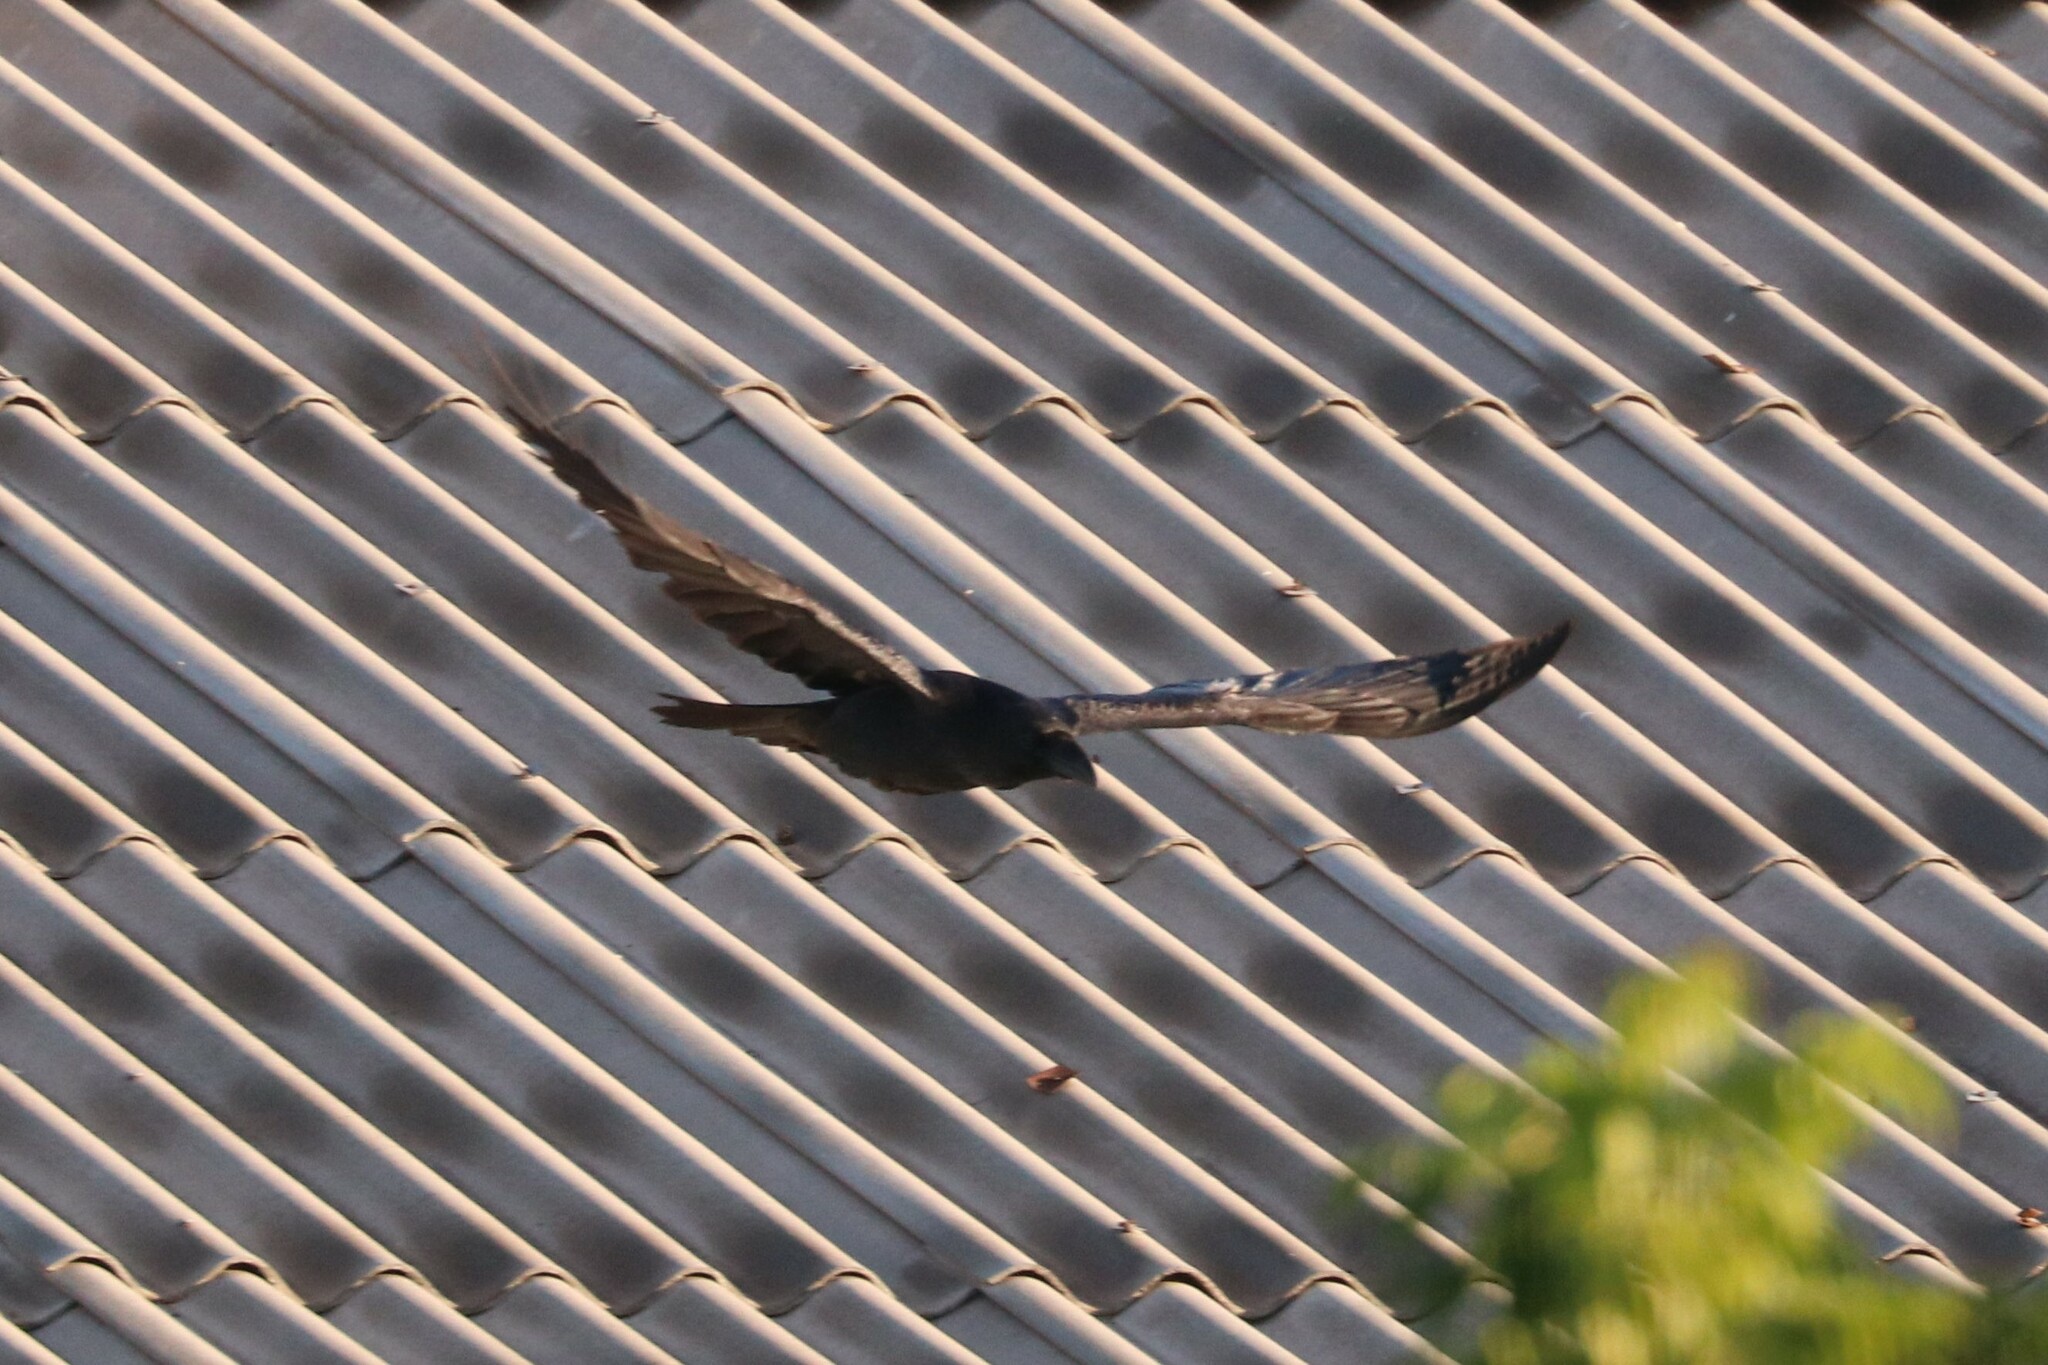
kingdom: Animalia
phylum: Chordata
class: Aves
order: Passeriformes
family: Corvidae
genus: Corvus
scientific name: Corvus corax
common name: Common raven
